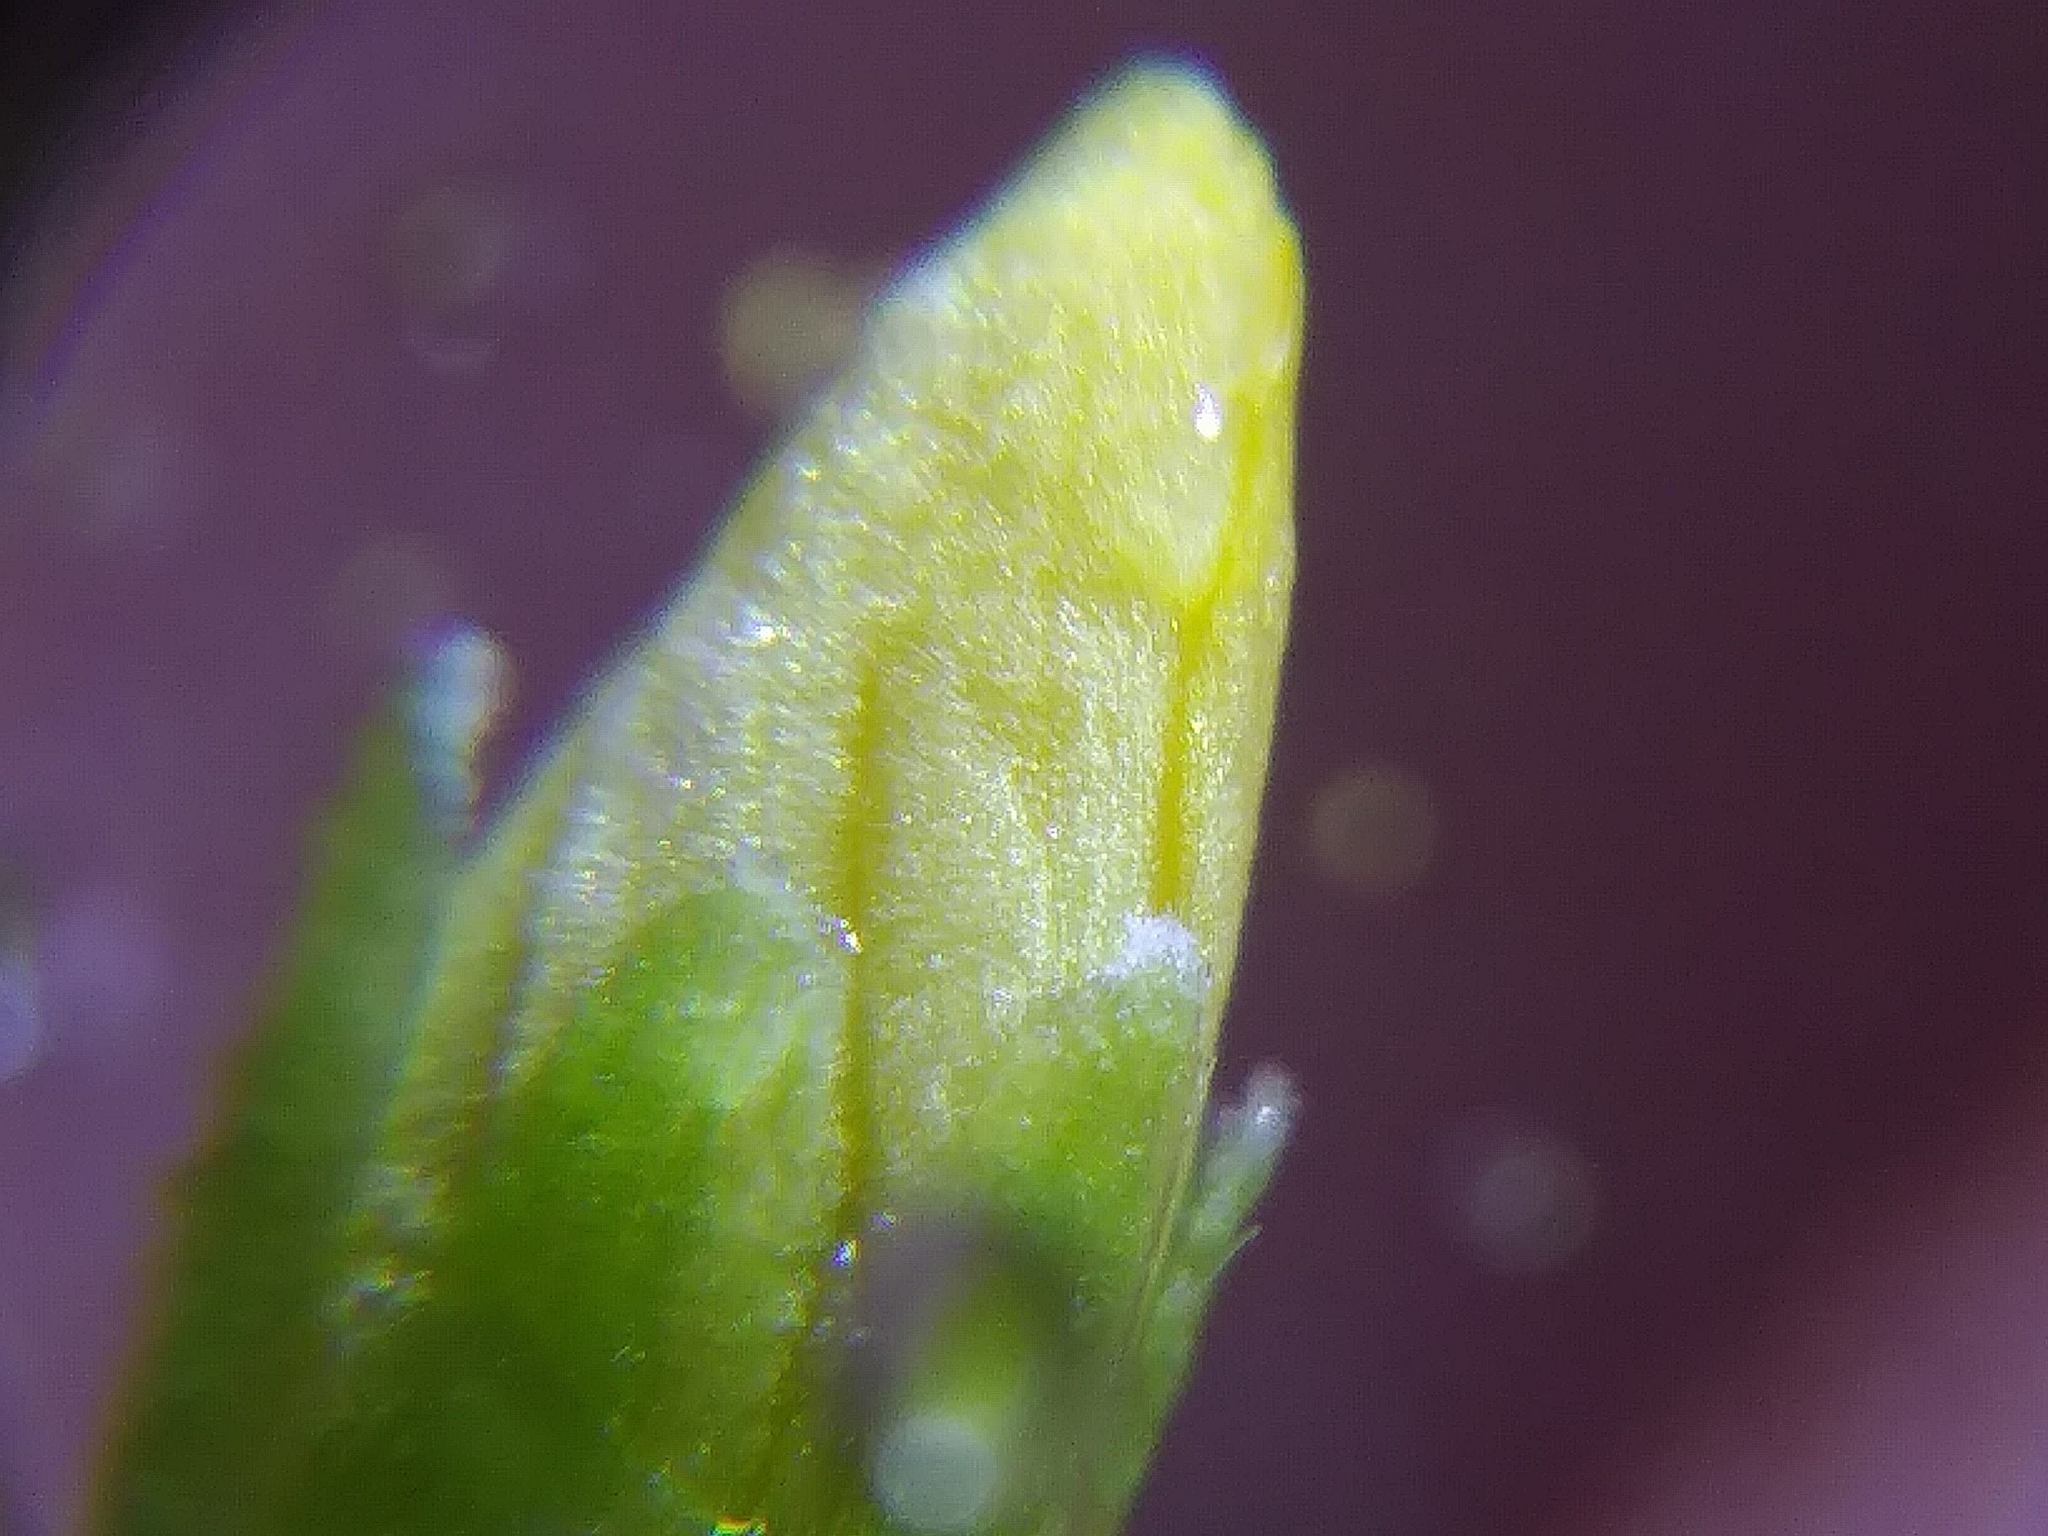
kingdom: Plantae
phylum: Tracheophyta
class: Magnoliopsida
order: Oxalidales
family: Oxalidaceae
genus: Oxalis
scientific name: Oxalis stricta
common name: Upright yellow-sorrel
